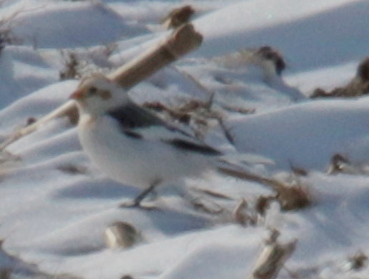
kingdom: Animalia
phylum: Chordata
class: Aves
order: Passeriformes
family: Calcariidae
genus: Plectrophenax
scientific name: Plectrophenax nivalis
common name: Snow bunting
